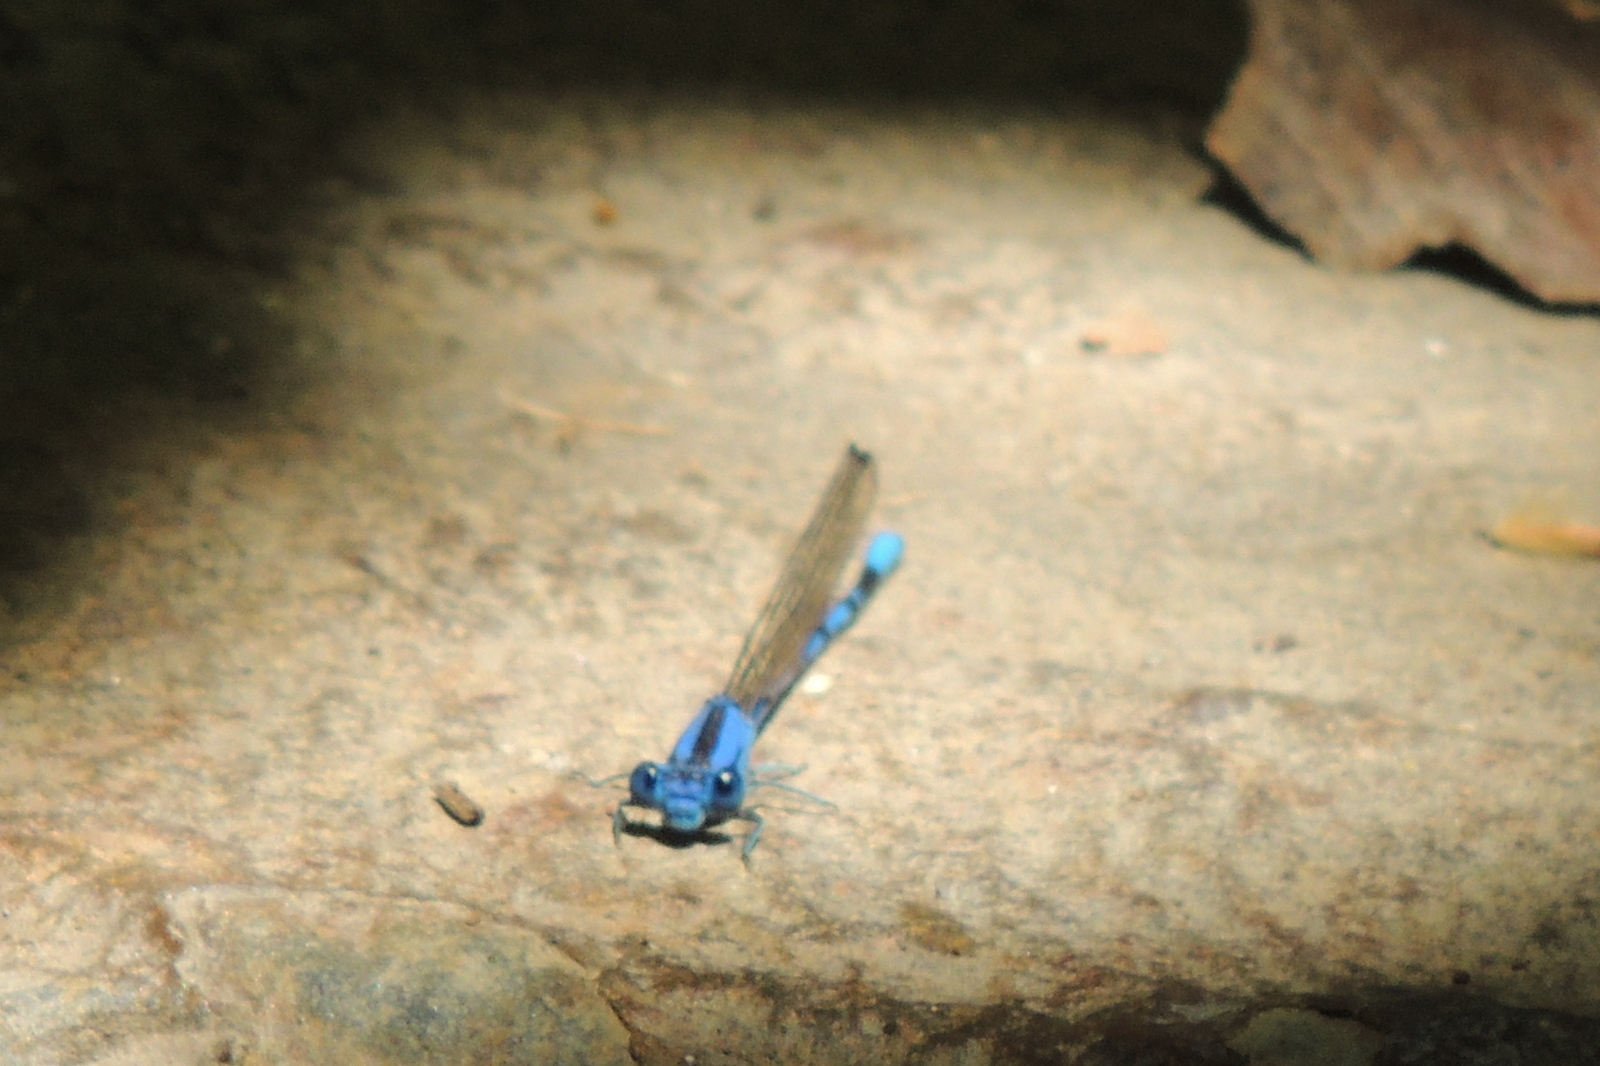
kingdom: Animalia
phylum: Arthropoda
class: Insecta
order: Odonata
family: Coenagrionidae
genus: Argia
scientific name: Argia vivida
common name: Vivid dancer
